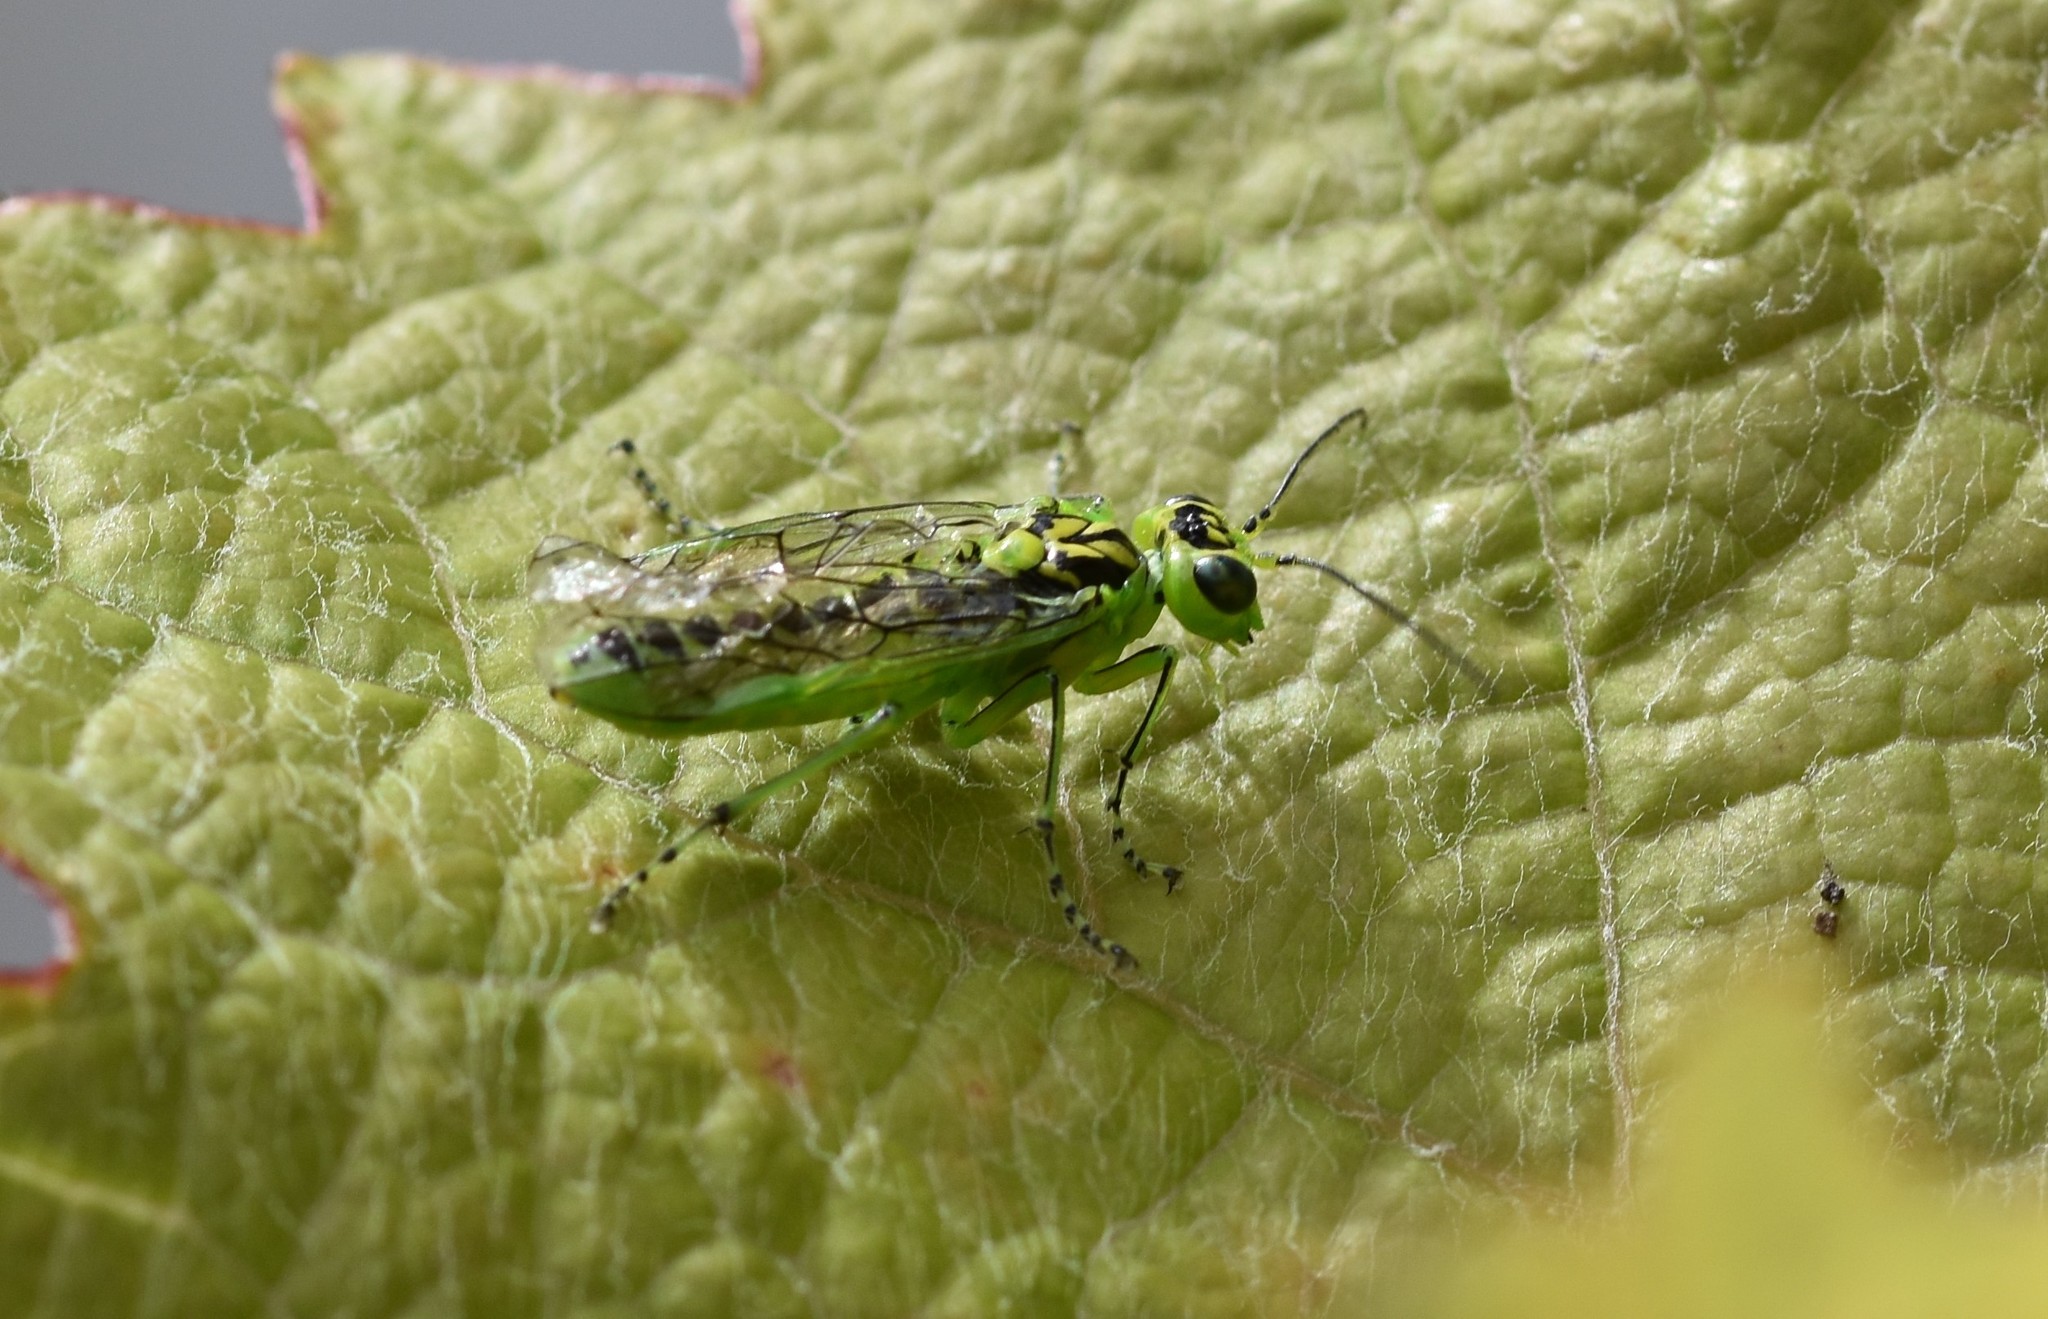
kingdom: Animalia
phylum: Arthropoda
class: Insecta
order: Hymenoptera
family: Tenthredinidae
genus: Rhogogaster
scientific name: Rhogogaster chlorosoma
